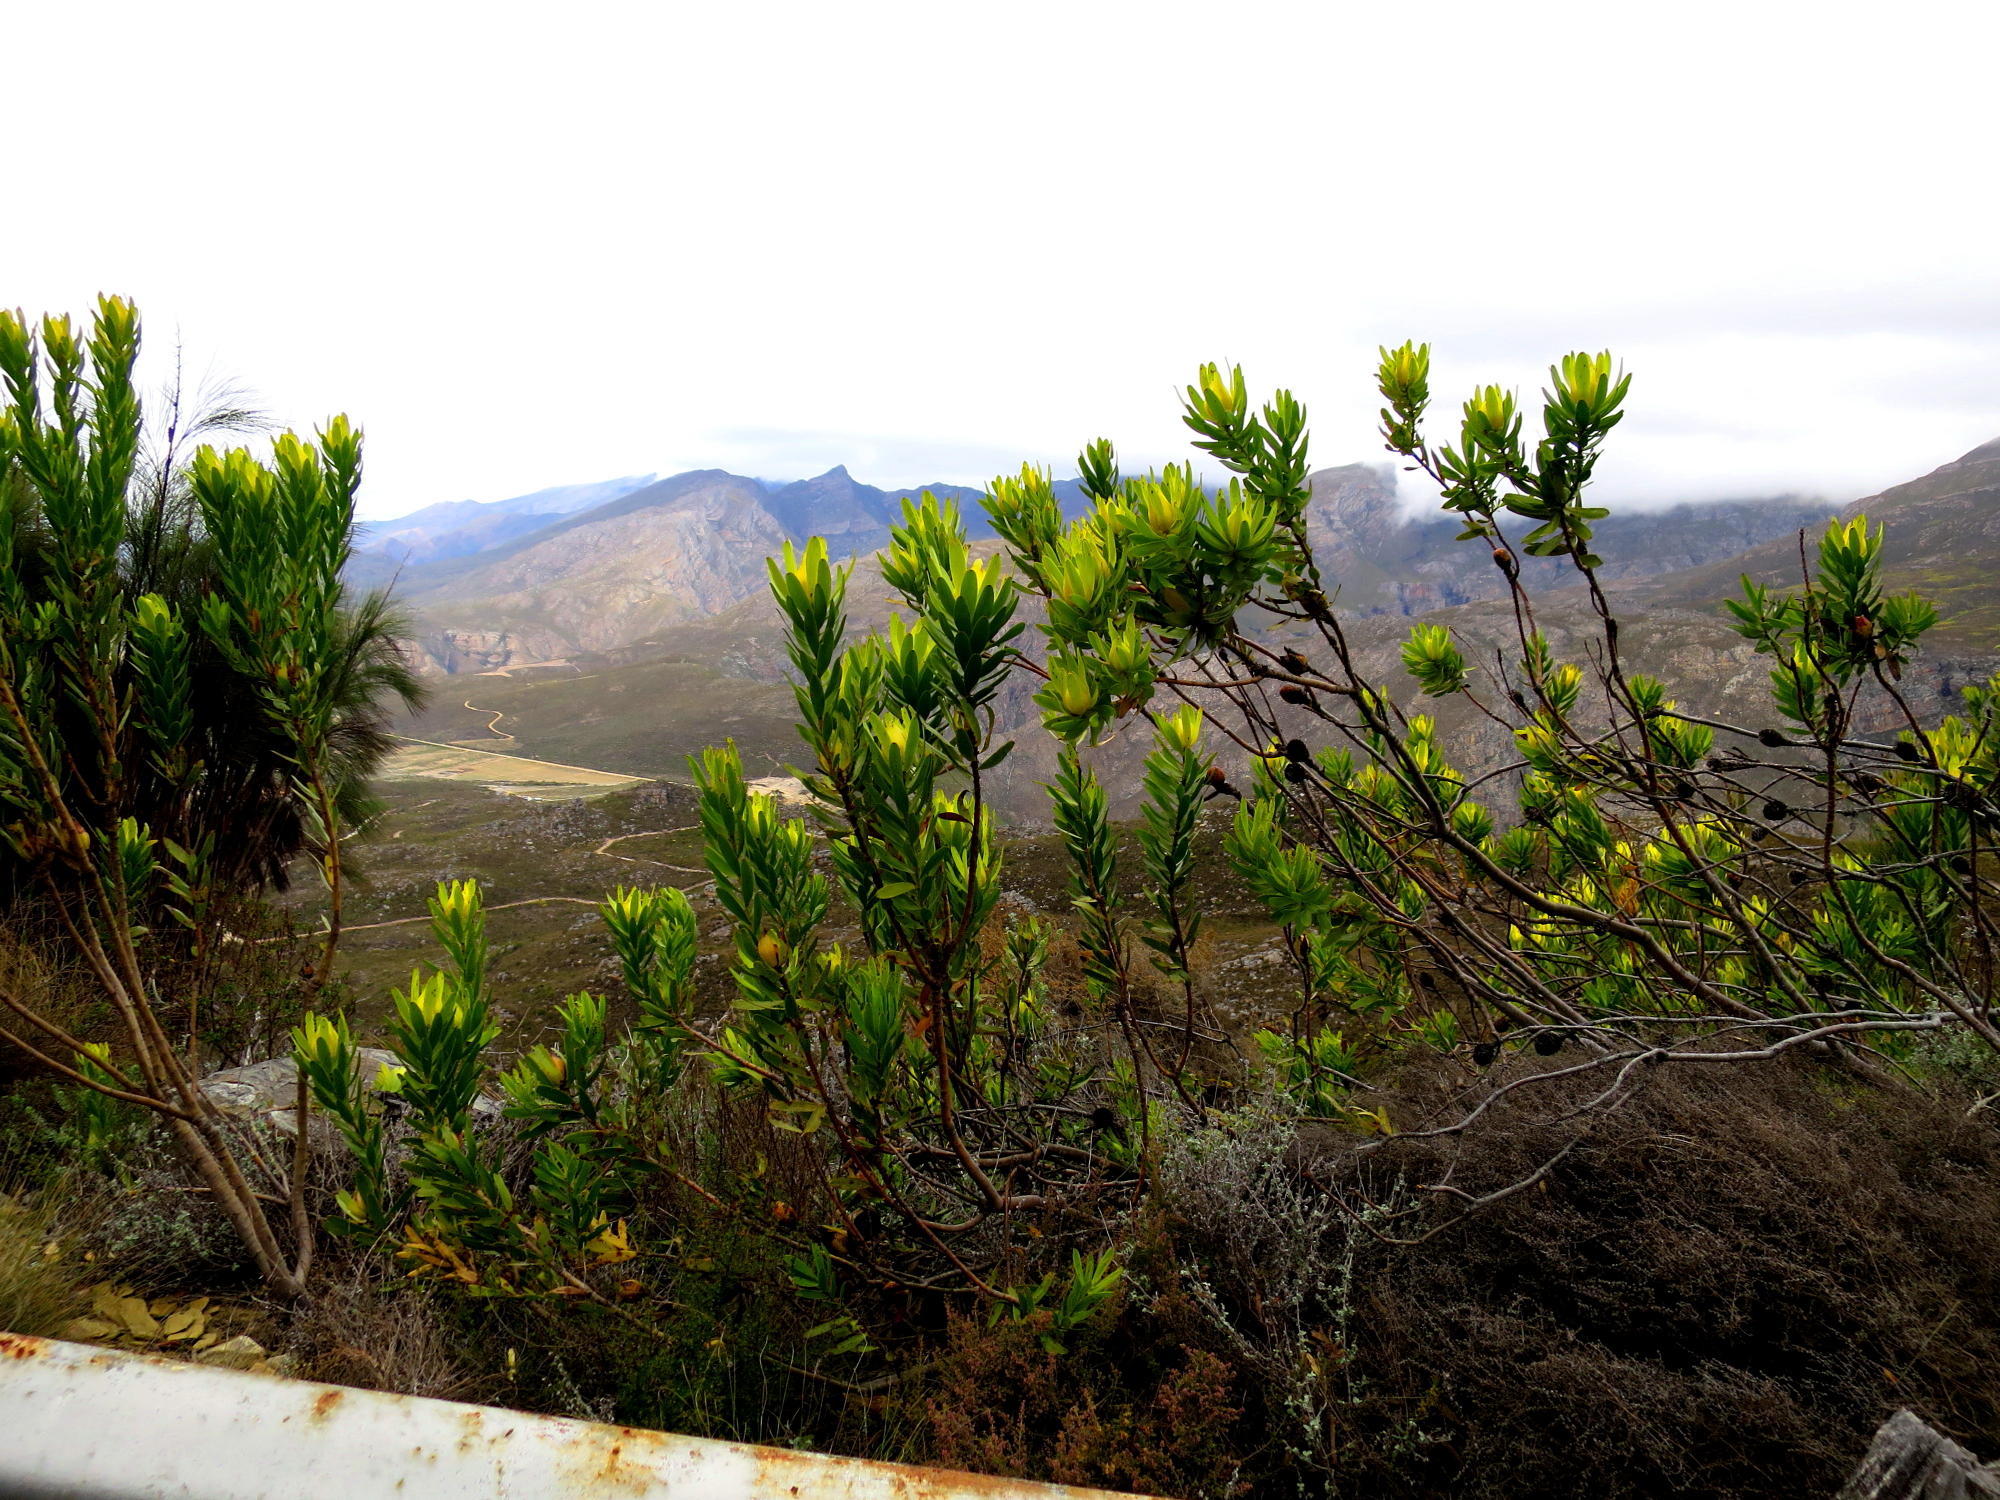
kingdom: Plantae
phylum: Tracheophyta
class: Magnoliopsida
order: Proteales
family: Proteaceae
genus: Leucadendron
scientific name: Leucadendron laureolum
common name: Golden sunshinebush
